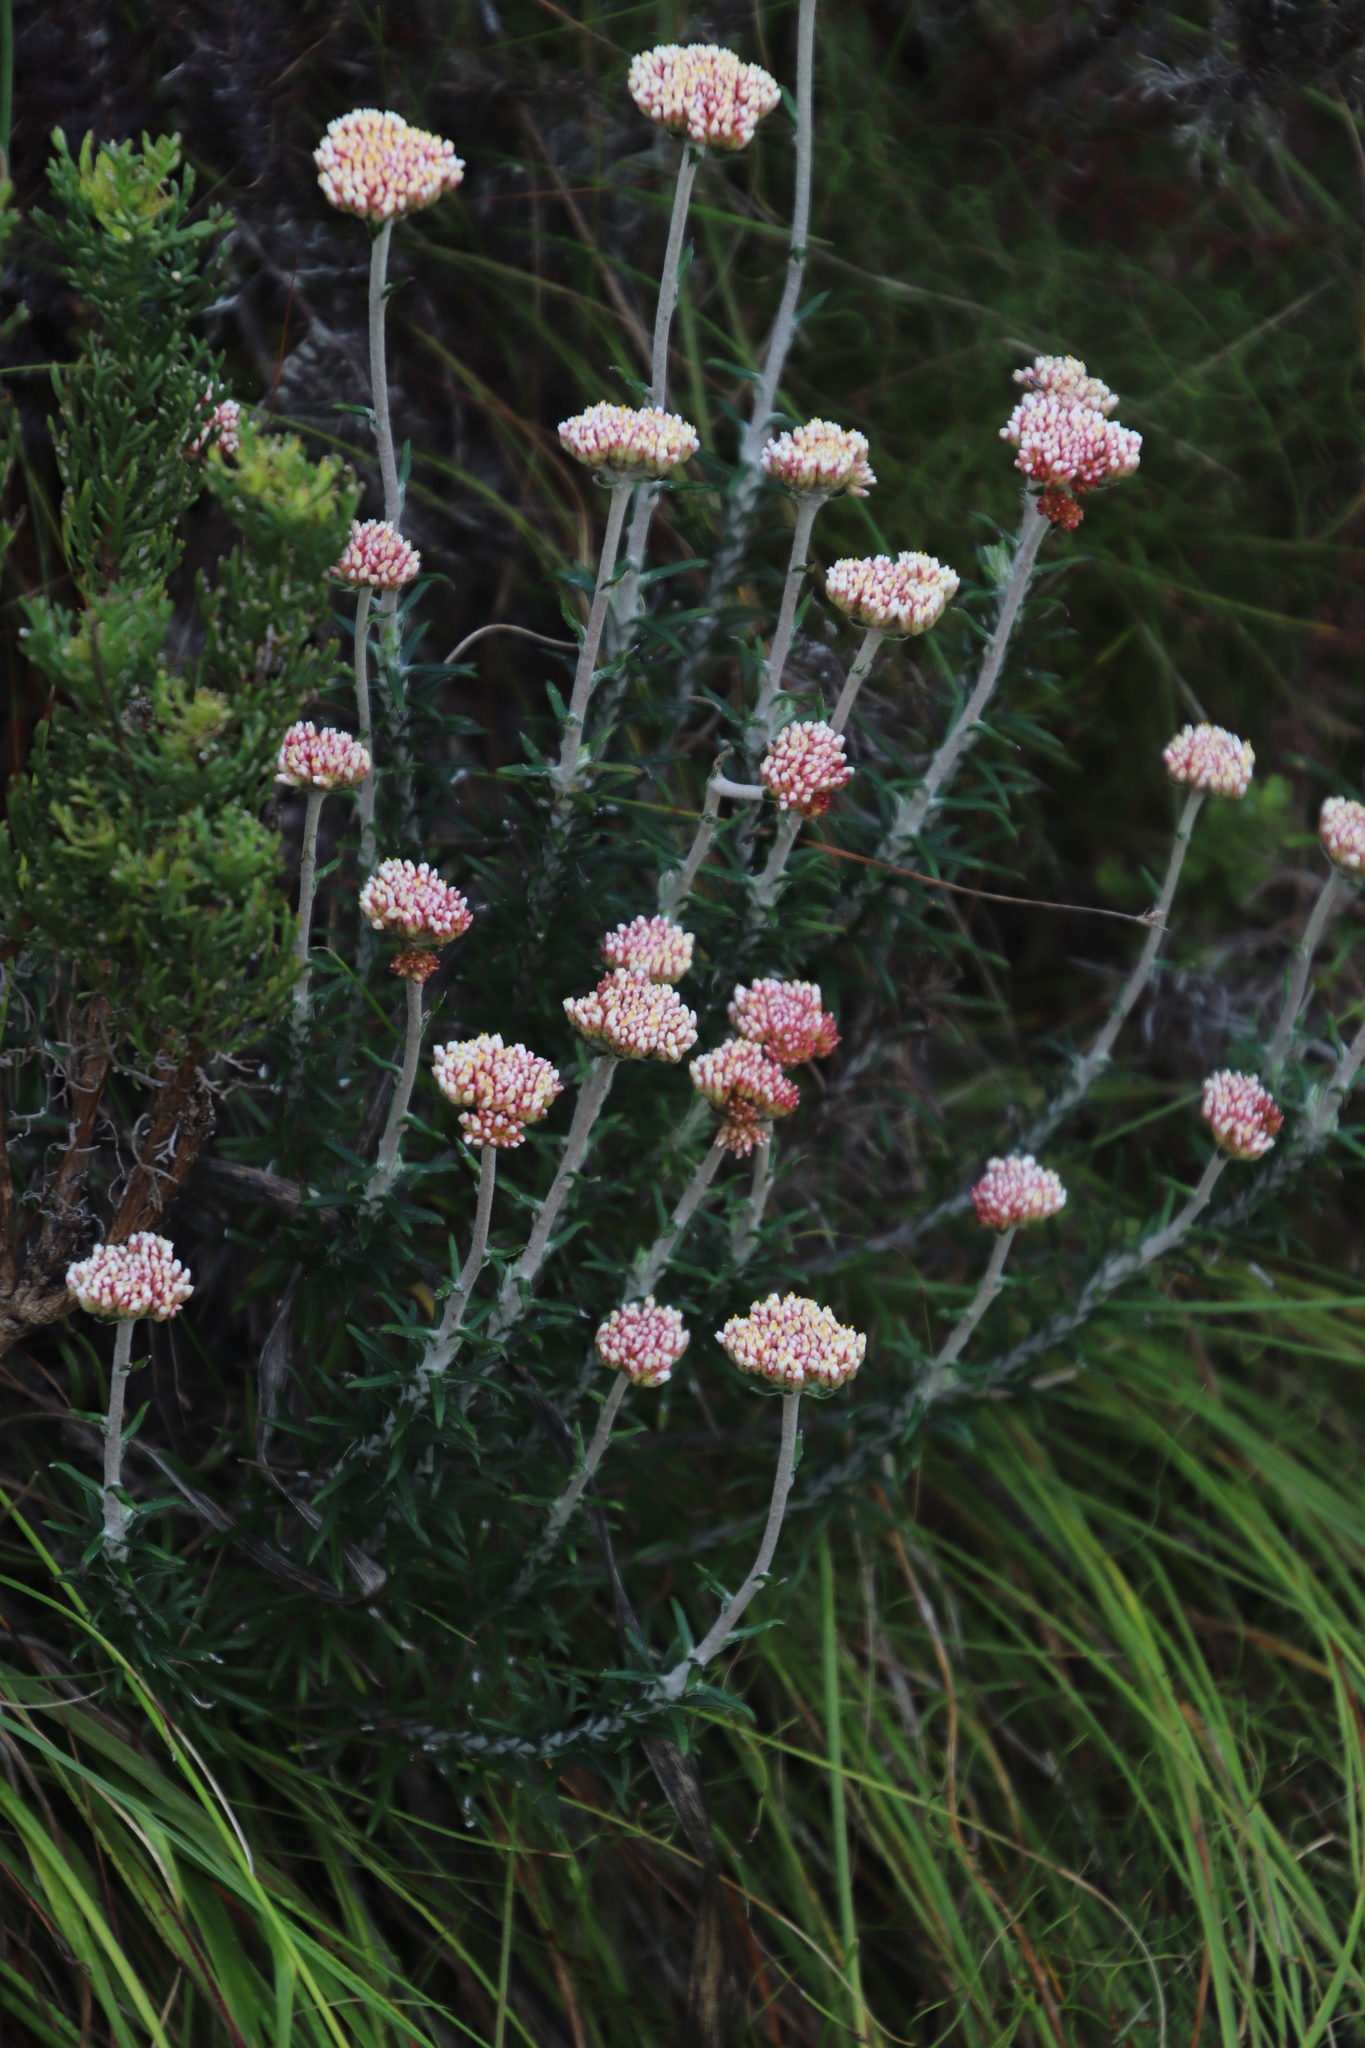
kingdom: Plantae
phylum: Tracheophyta
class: Magnoliopsida
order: Asterales
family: Asteraceae
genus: Anaxeton
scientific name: Anaxeton arborescens
